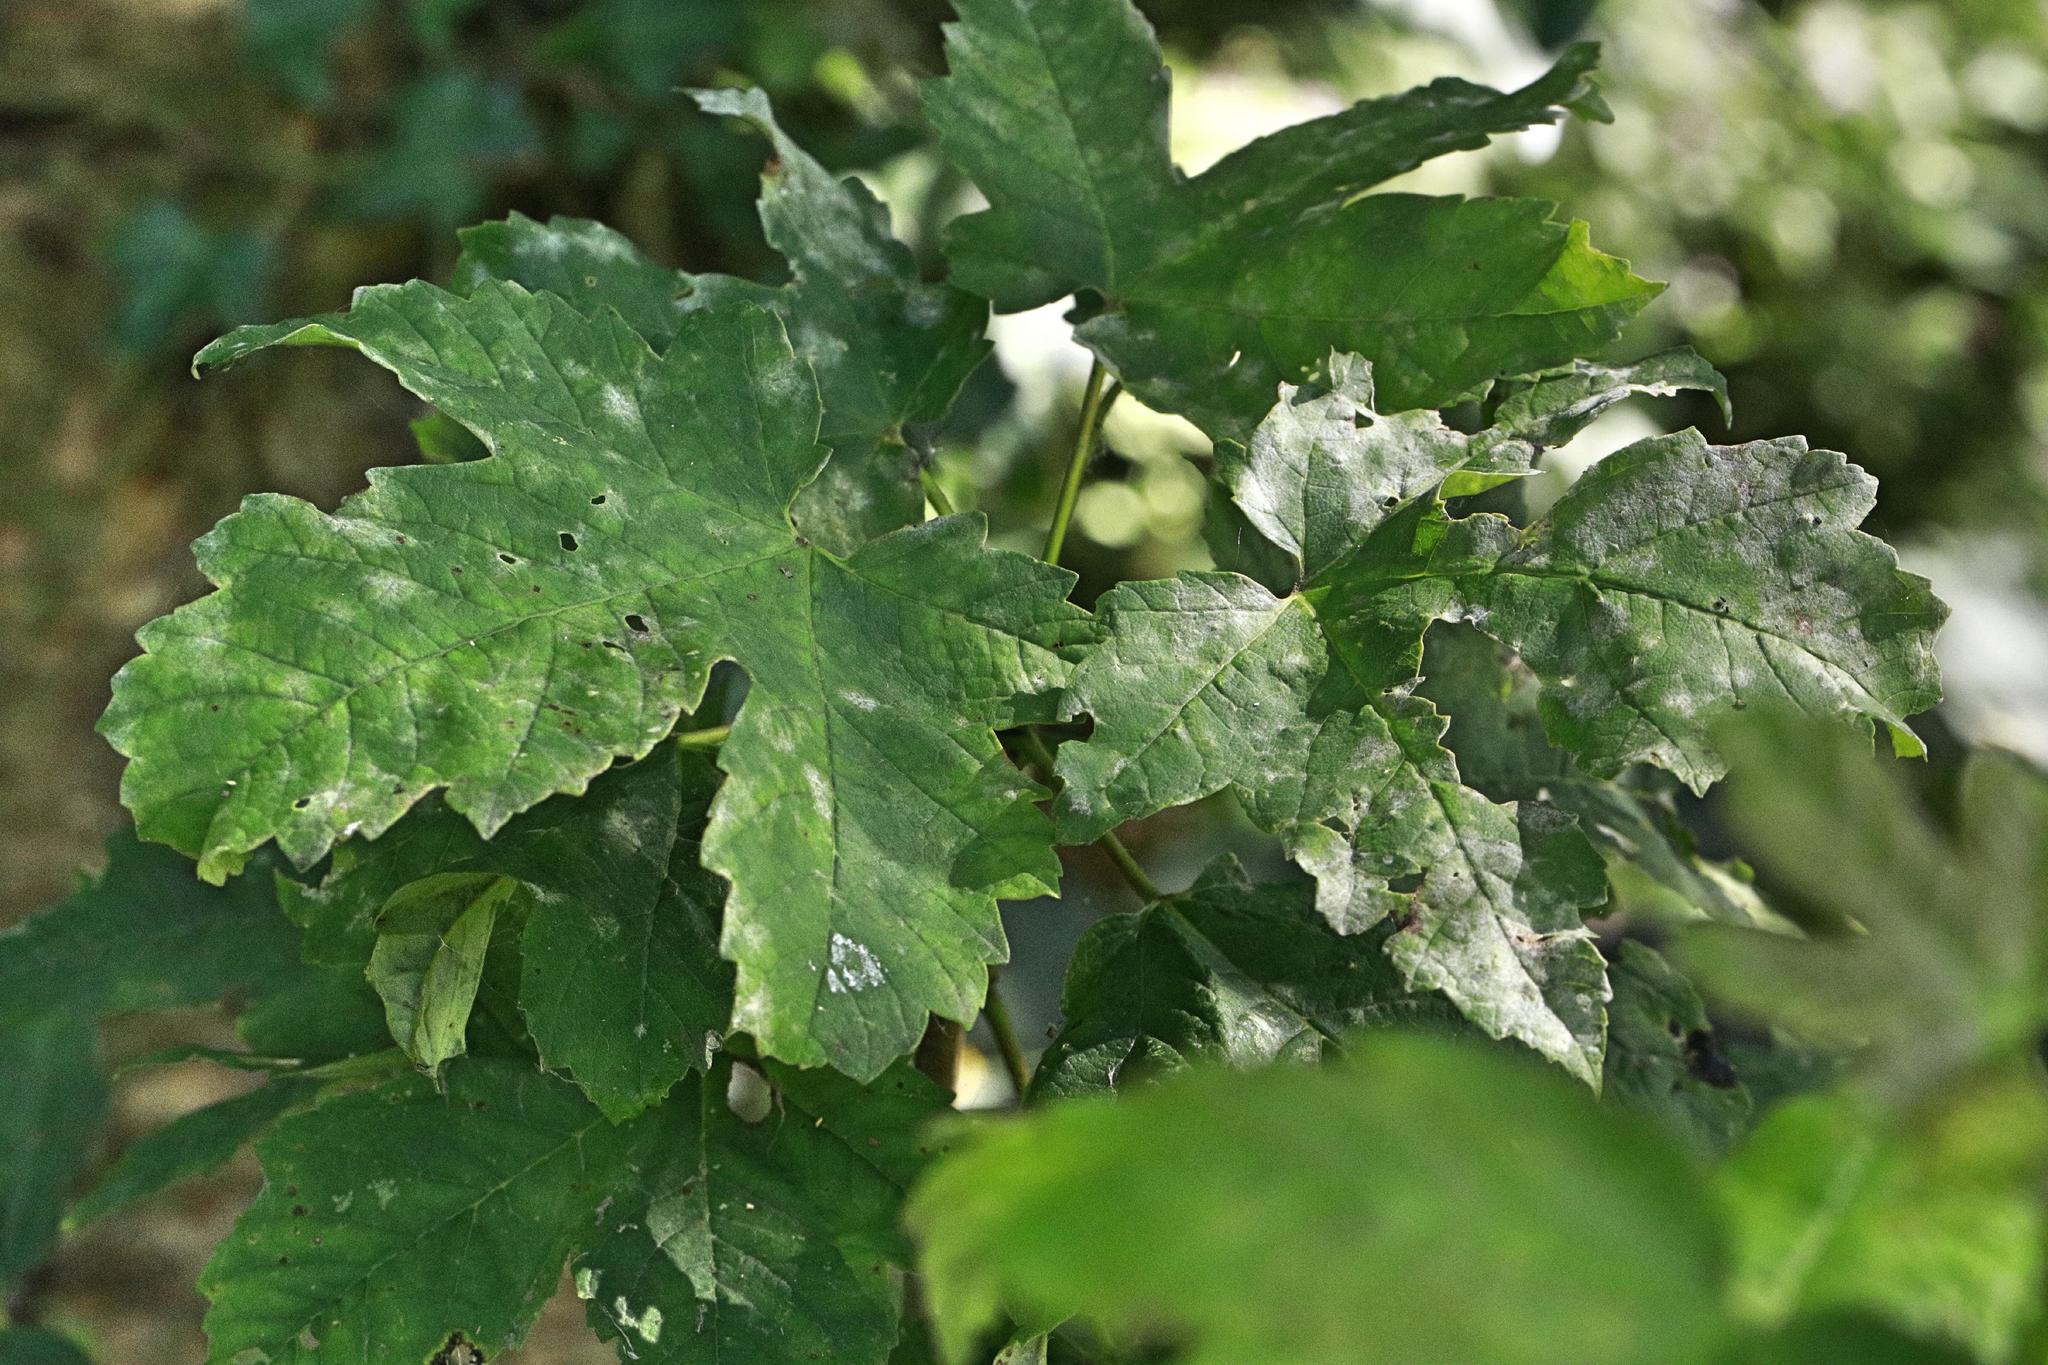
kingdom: Fungi
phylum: Ascomycota
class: Leotiomycetes
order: Helotiales
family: Erysiphaceae
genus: Sawadaea
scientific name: Sawadaea bicornis
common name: Maple mildew
